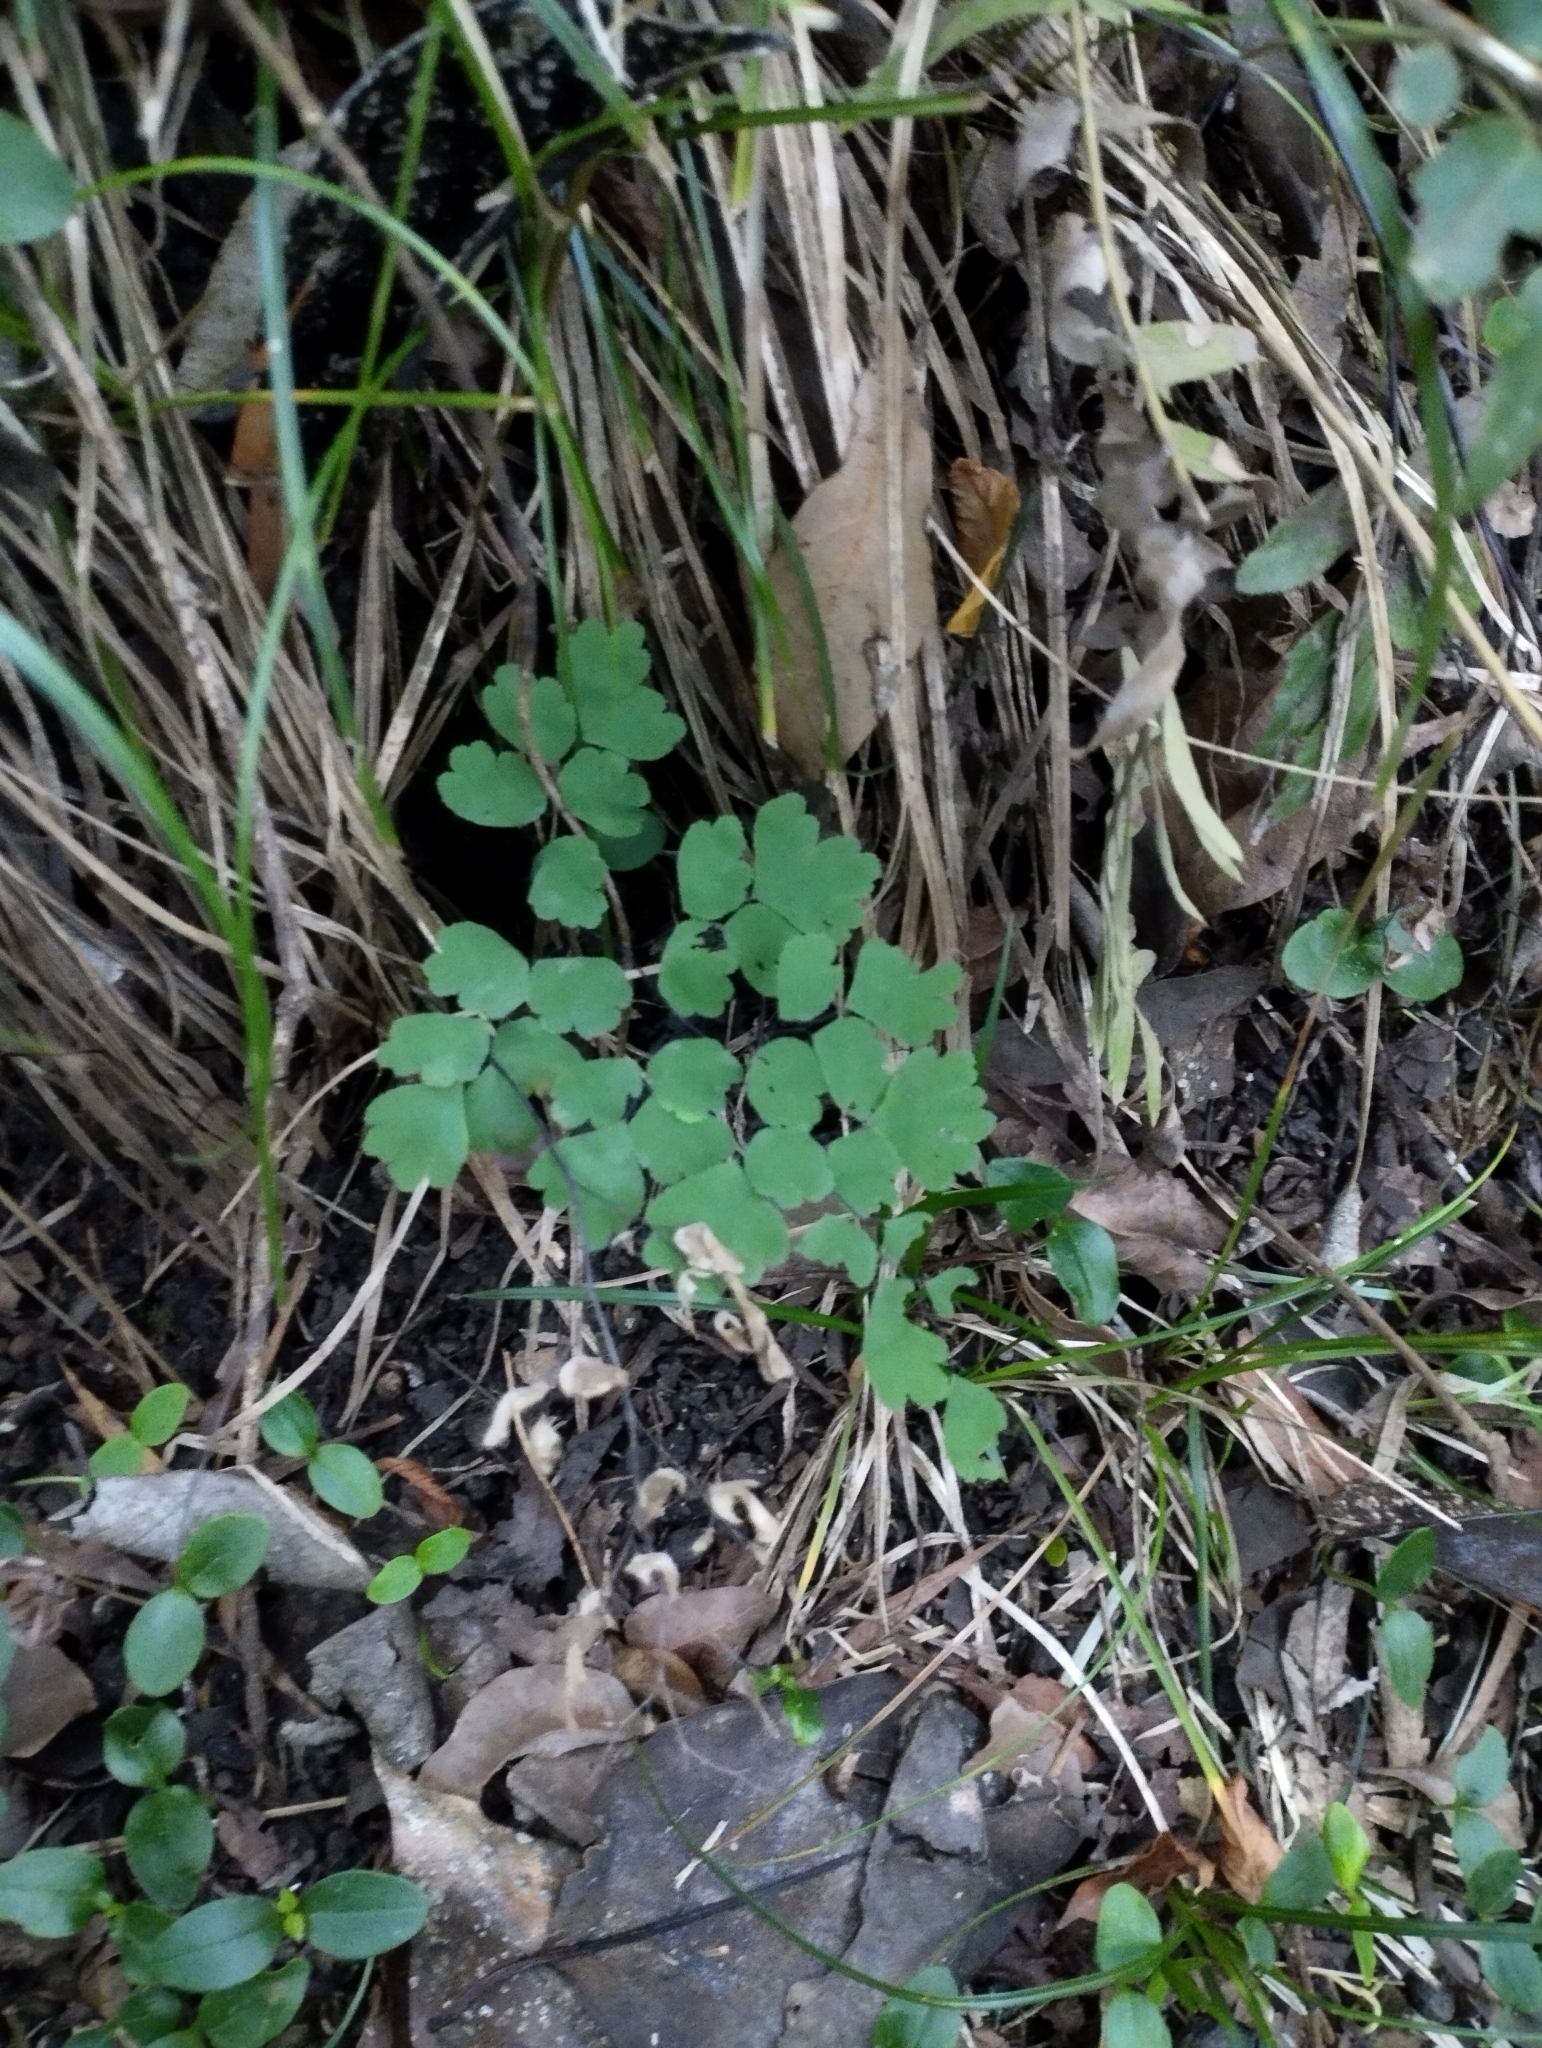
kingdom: Plantae
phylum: Tracheophyta
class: Polypodiopsida
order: Polypodiales
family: Pteridaceae
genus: Adiantum
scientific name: Adiantum raddianum
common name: Delta maidenhair fern
